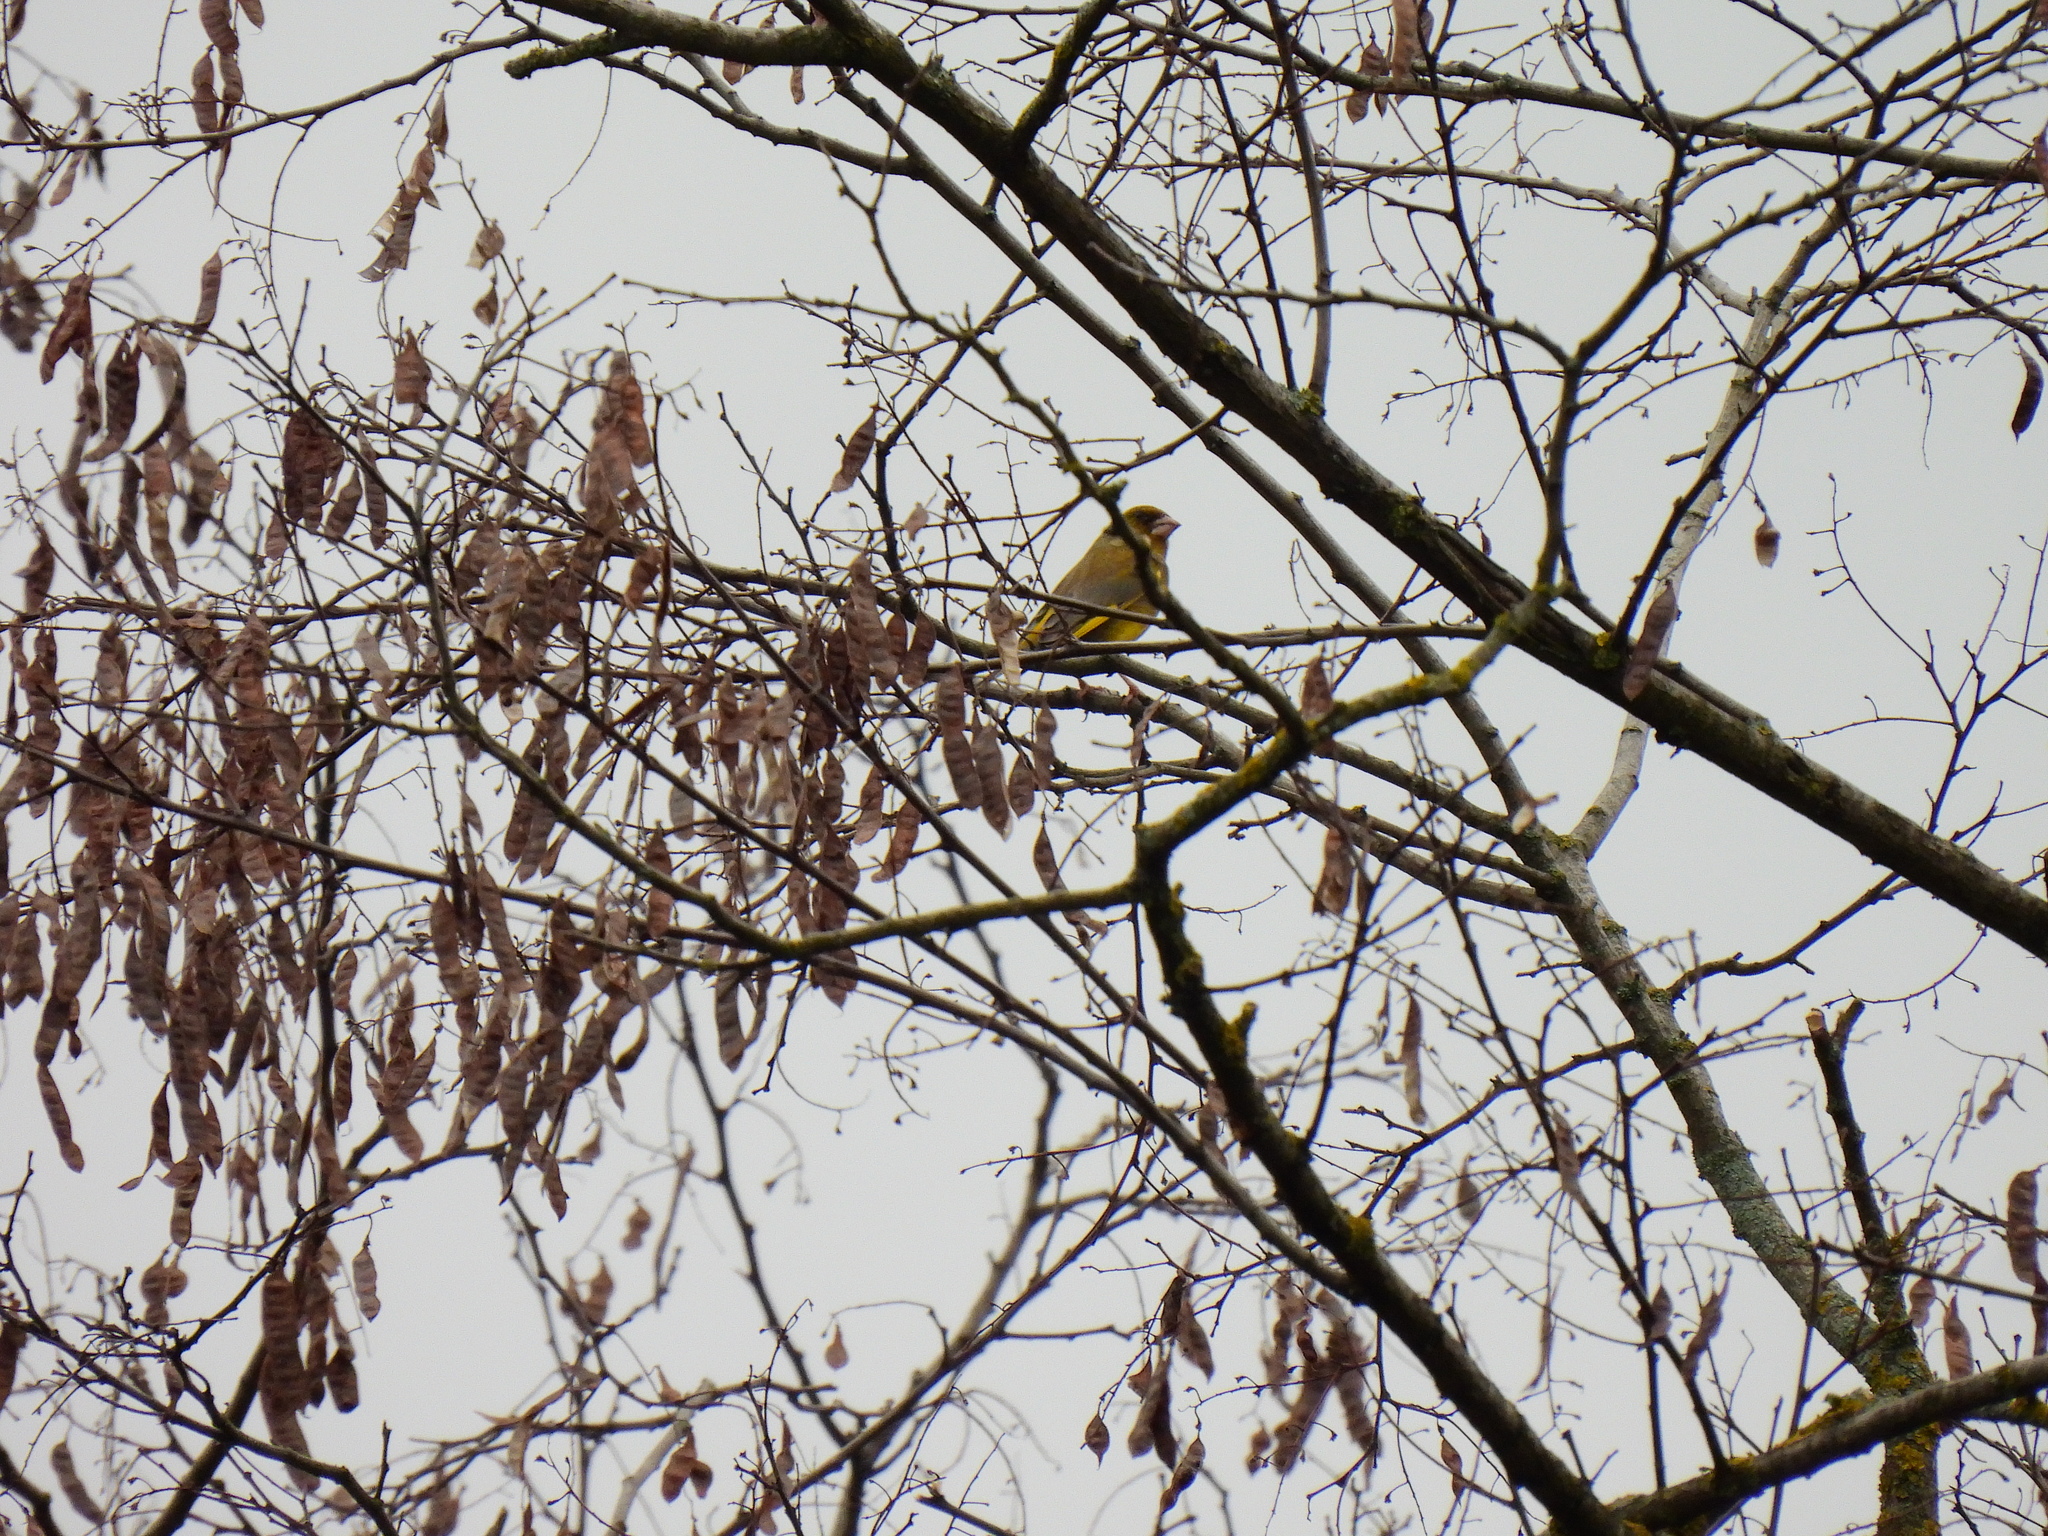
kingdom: Plantae
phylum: Tracheophyta
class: Liliopsida
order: Poales
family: Poaceae
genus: Chloris
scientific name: Chloris chloris
